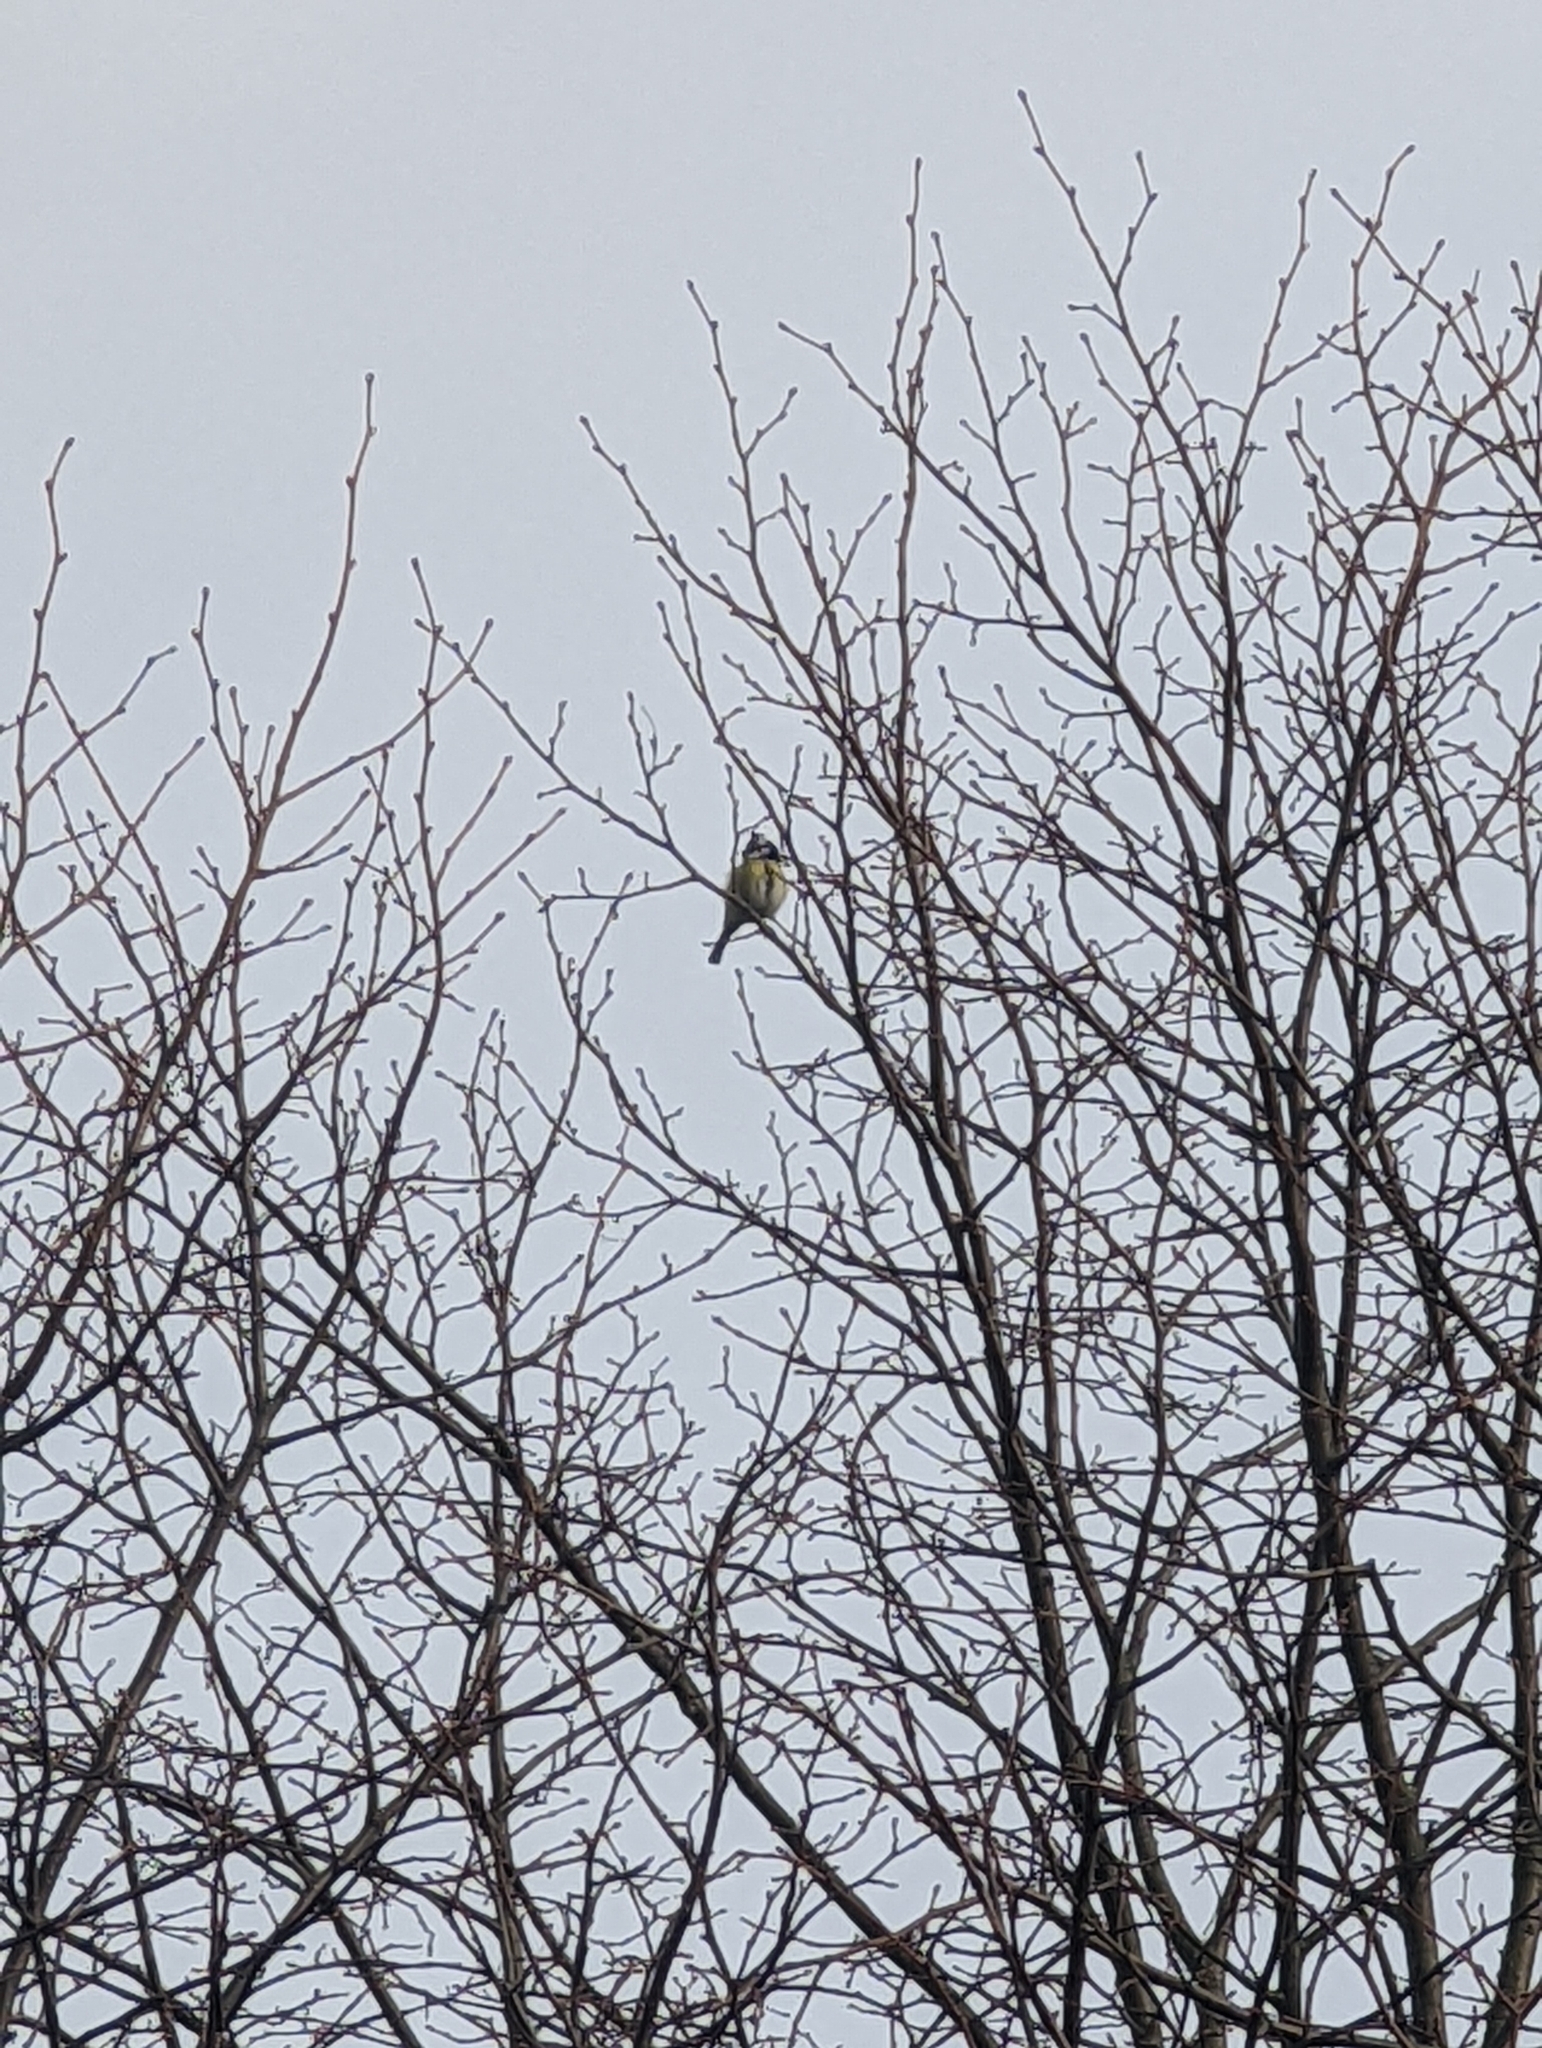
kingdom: Animalia
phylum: Chordata
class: Aves
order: Passeriformes
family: Paridae
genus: Cyanistes
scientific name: Cyanistes caeruleus
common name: Eurasian blue tit
